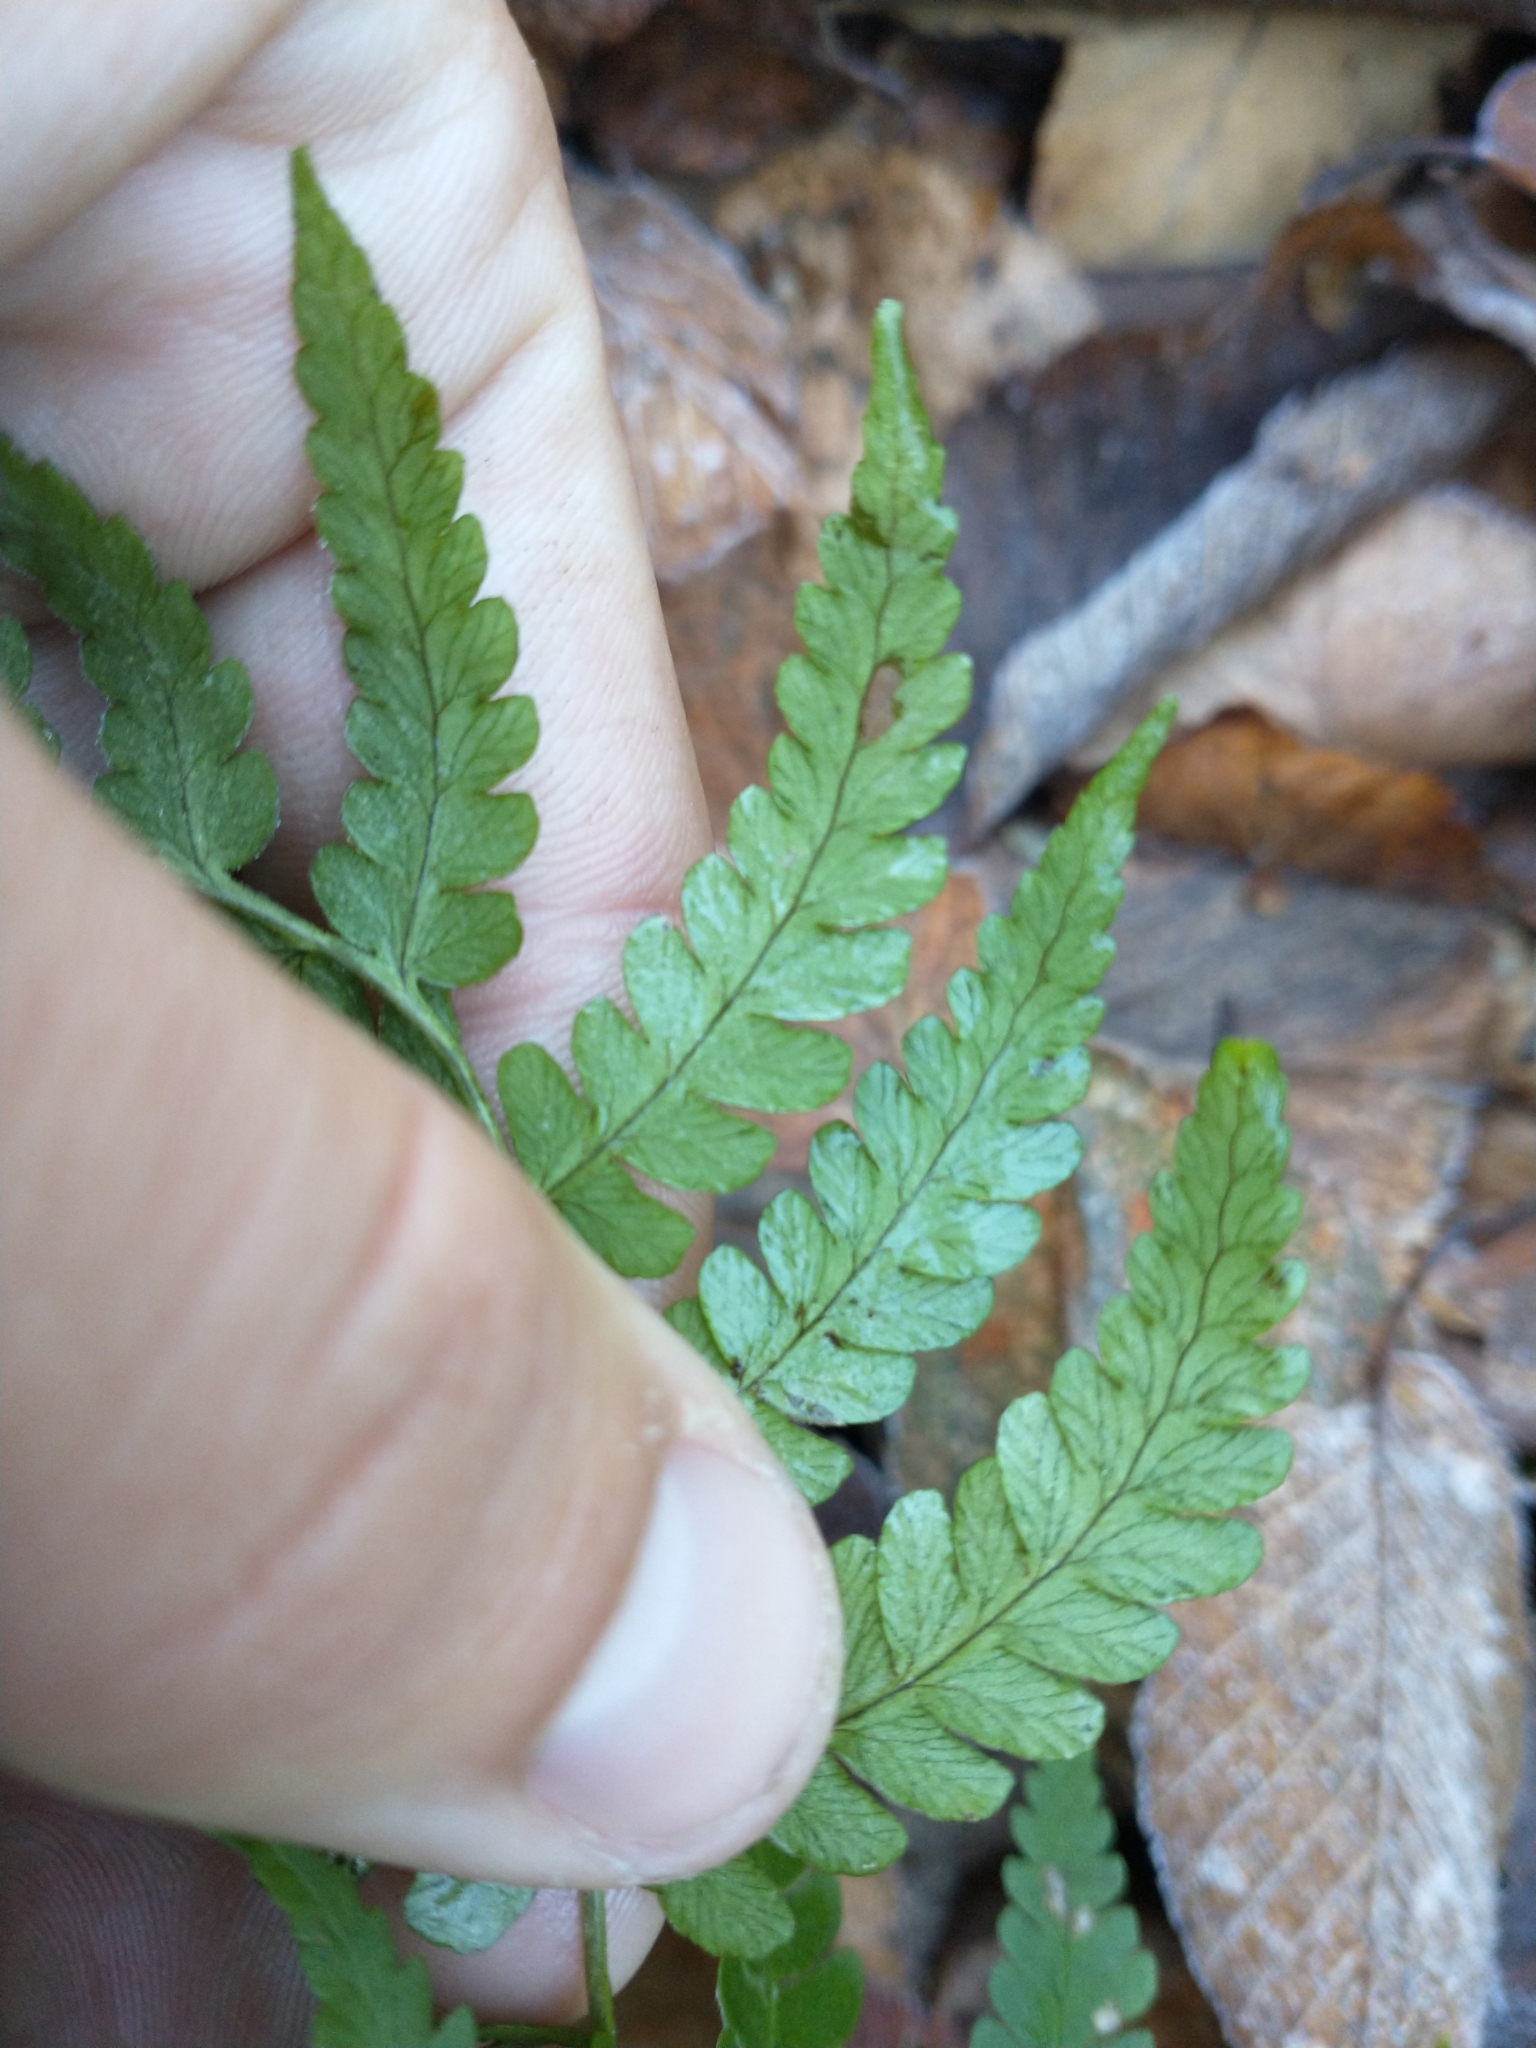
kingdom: Plantae
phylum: Tracheophyta
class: Polypodiopsida
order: Polypodiales
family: Dryopteridaceae
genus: Dryopteris
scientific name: Dryopteris marginalis
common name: Marginal wood fern
